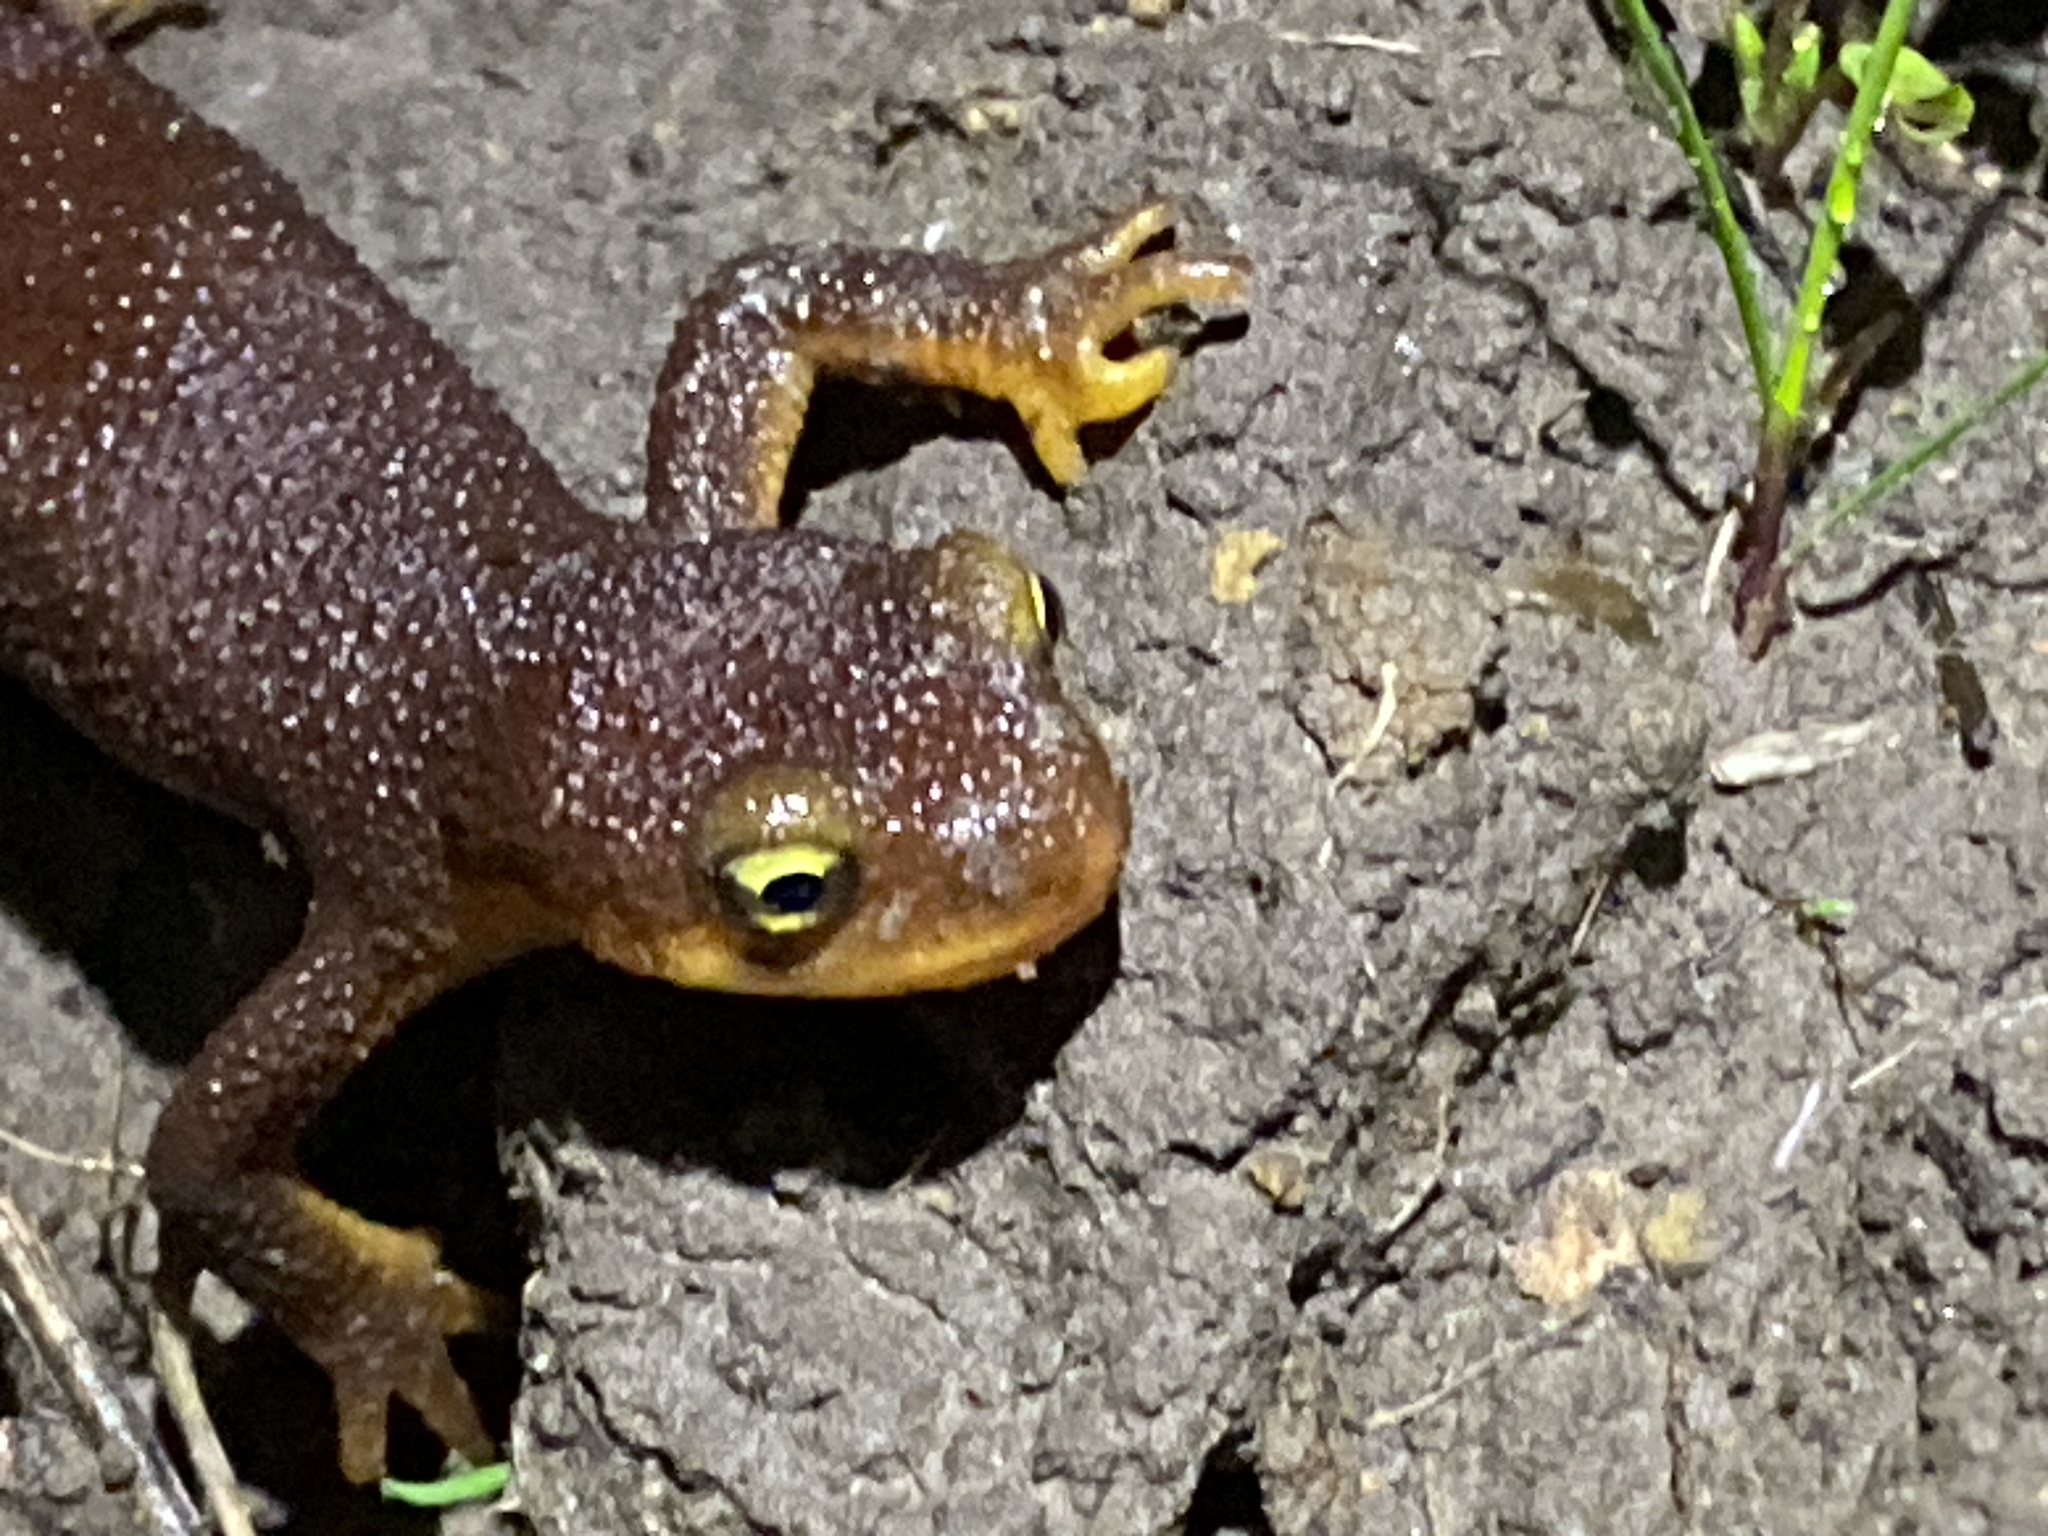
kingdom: Animalia
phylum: Chordata
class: Amphibia
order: Caudata
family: Salamandridae
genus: Taricha
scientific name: Taricha torosa
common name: California newt
